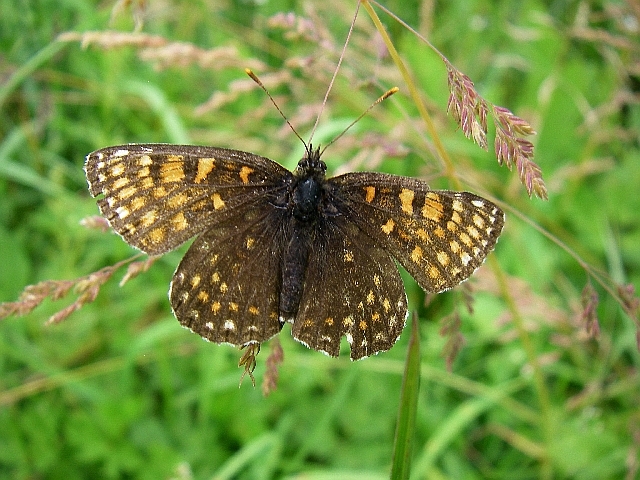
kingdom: Animalia
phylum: Arthropoda
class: Insecta
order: Lepidoptera
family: Nymphalidae
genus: Melitaea
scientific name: Melitaea diamina
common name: False heath fritillary
